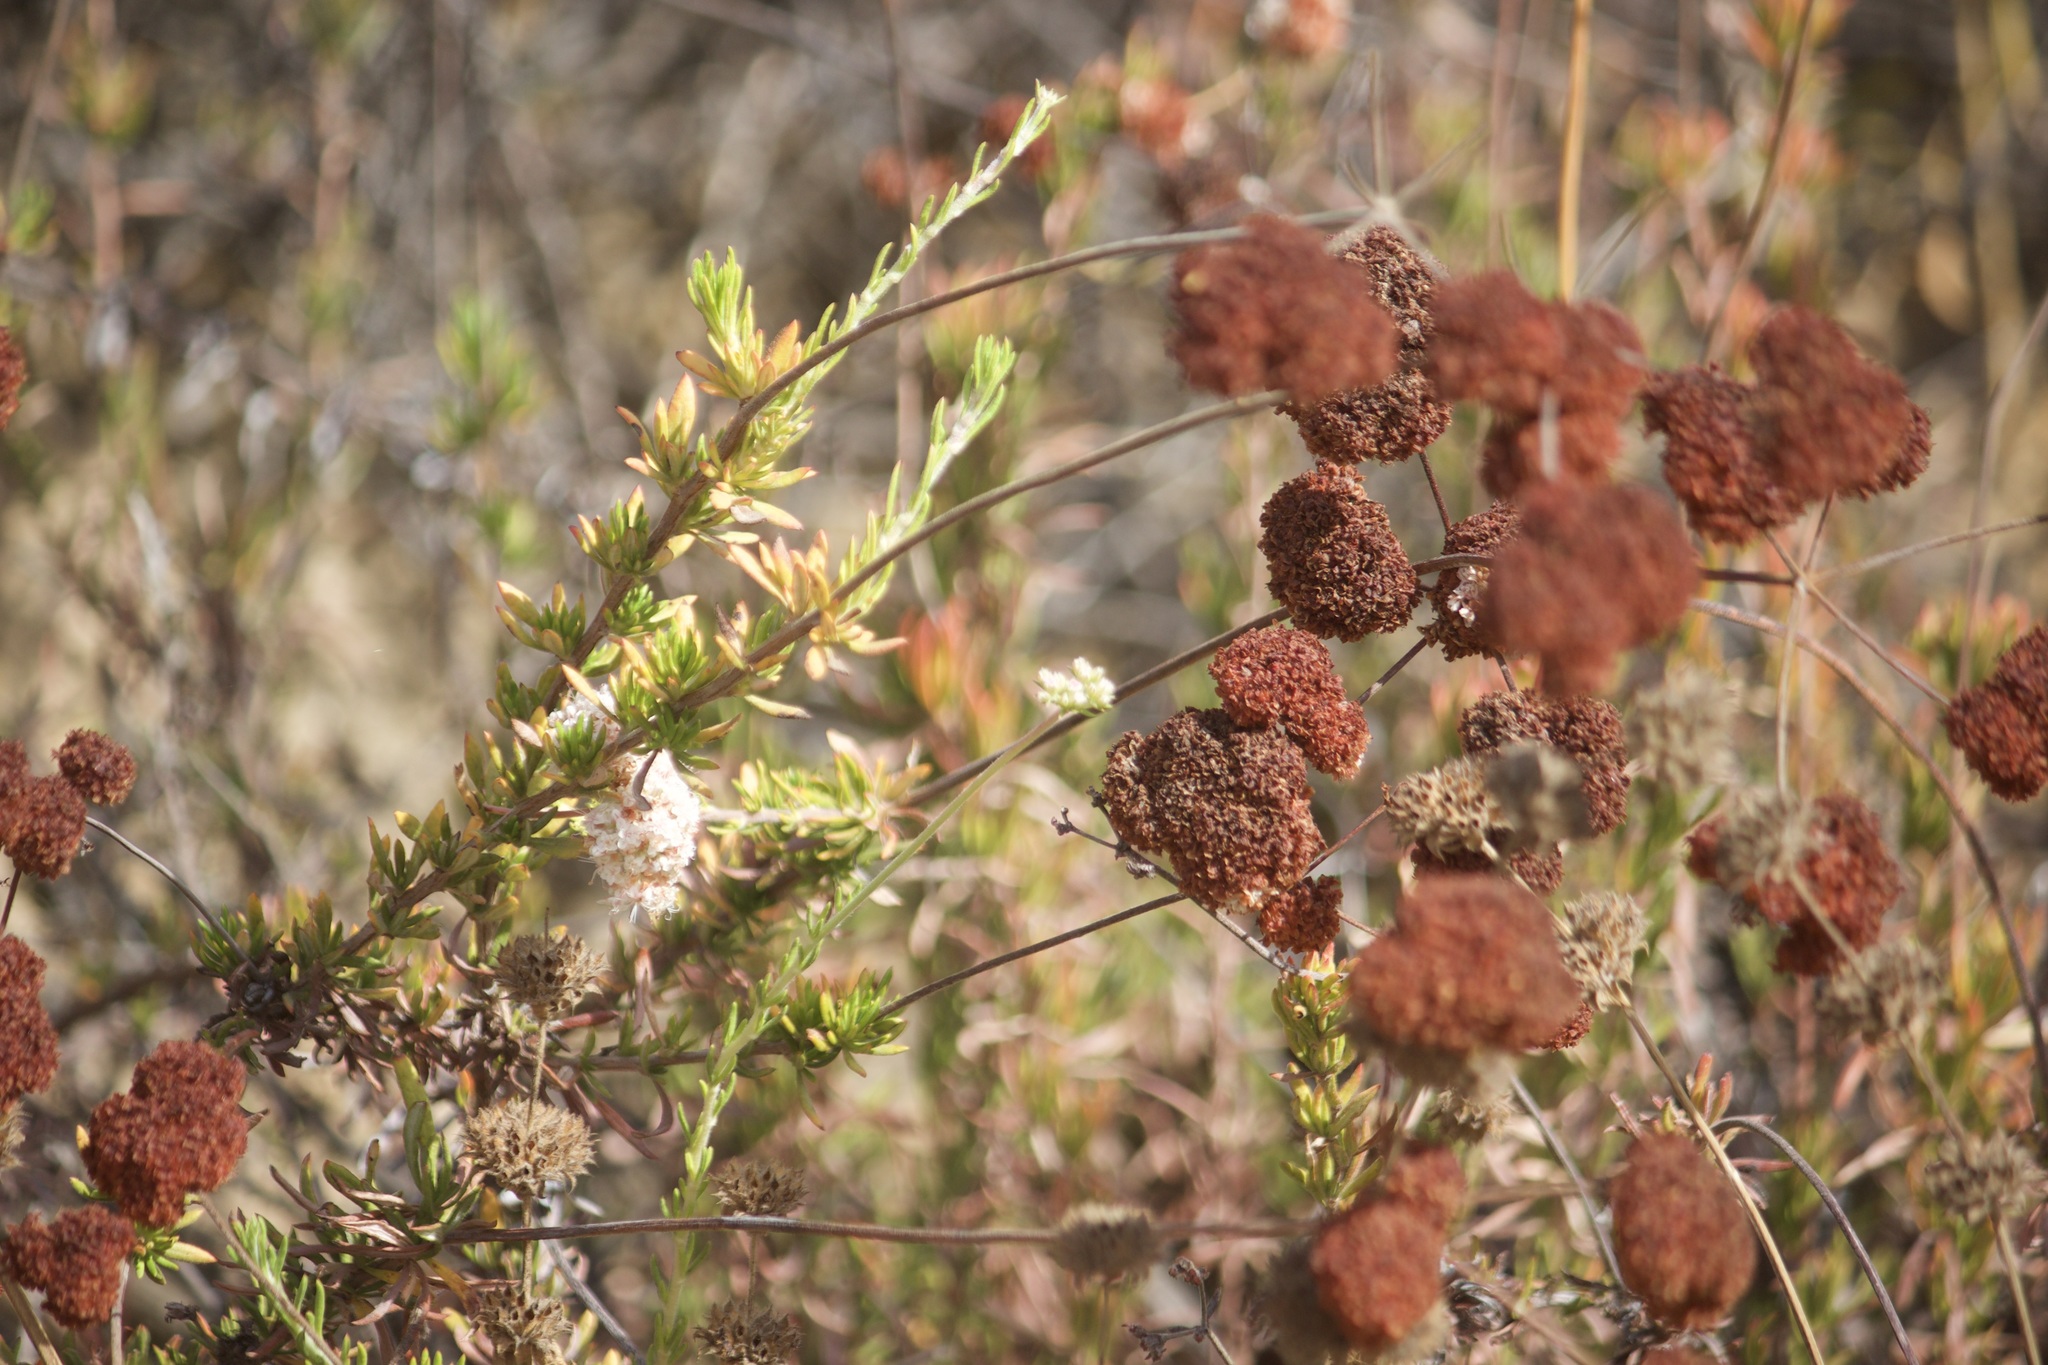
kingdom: Plantae
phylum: Tracheophyta
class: Magnoliopsida
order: Caryophyllales
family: Polygonaceae
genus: Eriogonum
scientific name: Eriogonum fasciculatum
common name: California wild buckwheat
